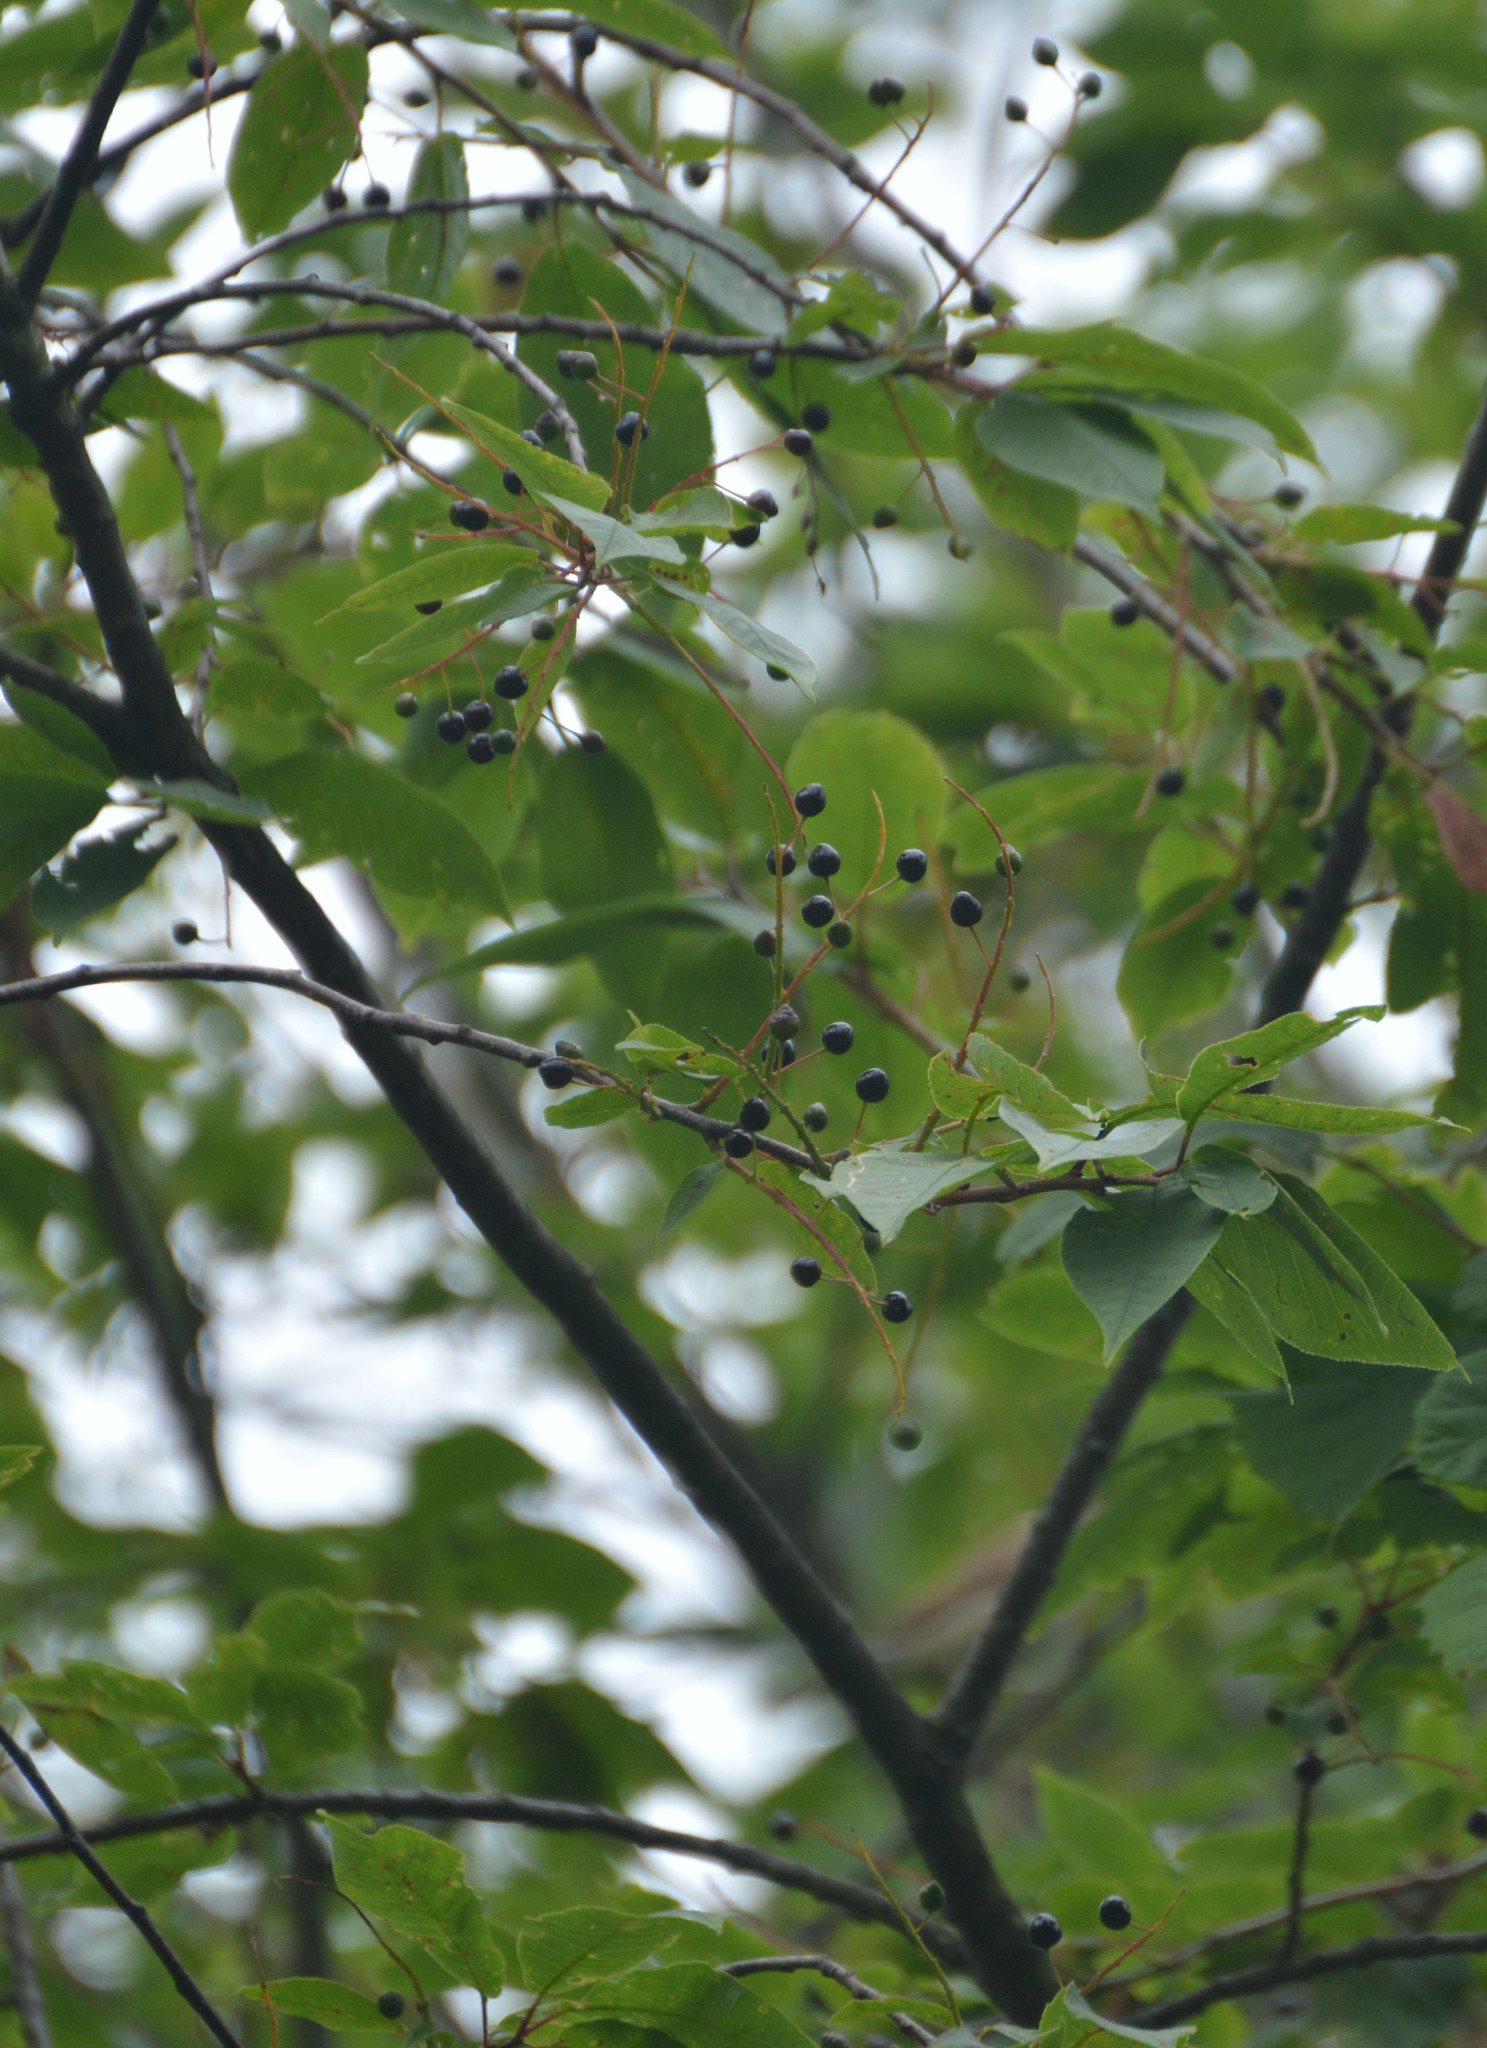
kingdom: Plantae
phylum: Tracheophyta
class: Magnoliopsida
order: Rosales
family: Rosaceae
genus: Prunus
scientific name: Prunus padus
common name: Bird cherry
